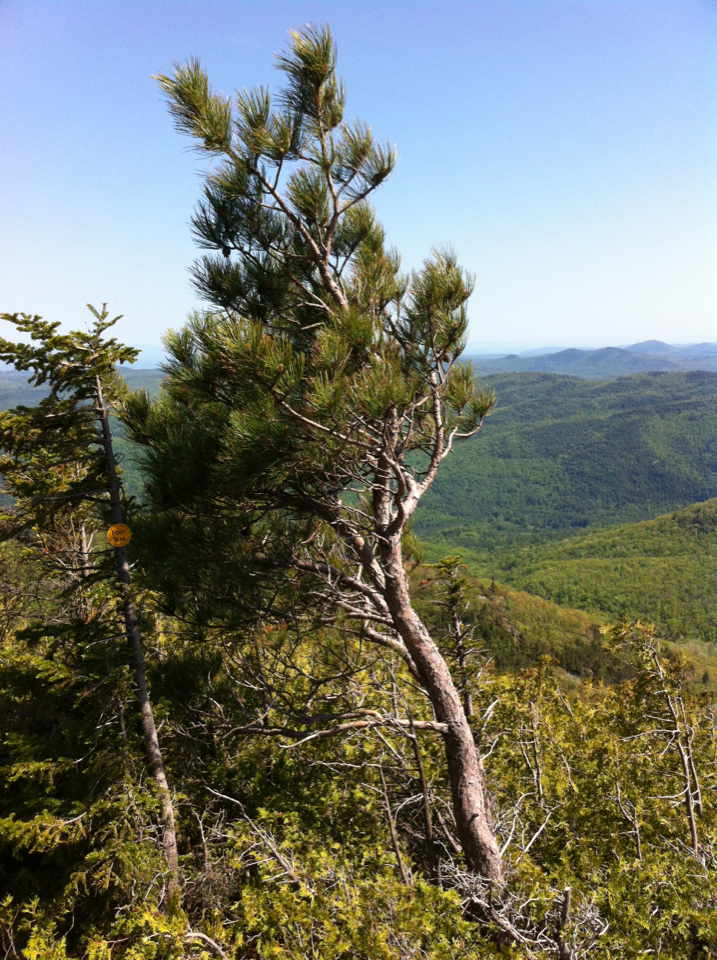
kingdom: Plantae
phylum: Tracheophyta
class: Pinopsida
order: Pinales
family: Pinaceae
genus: Pinus
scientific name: Pinus resinosa
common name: Norway pine
